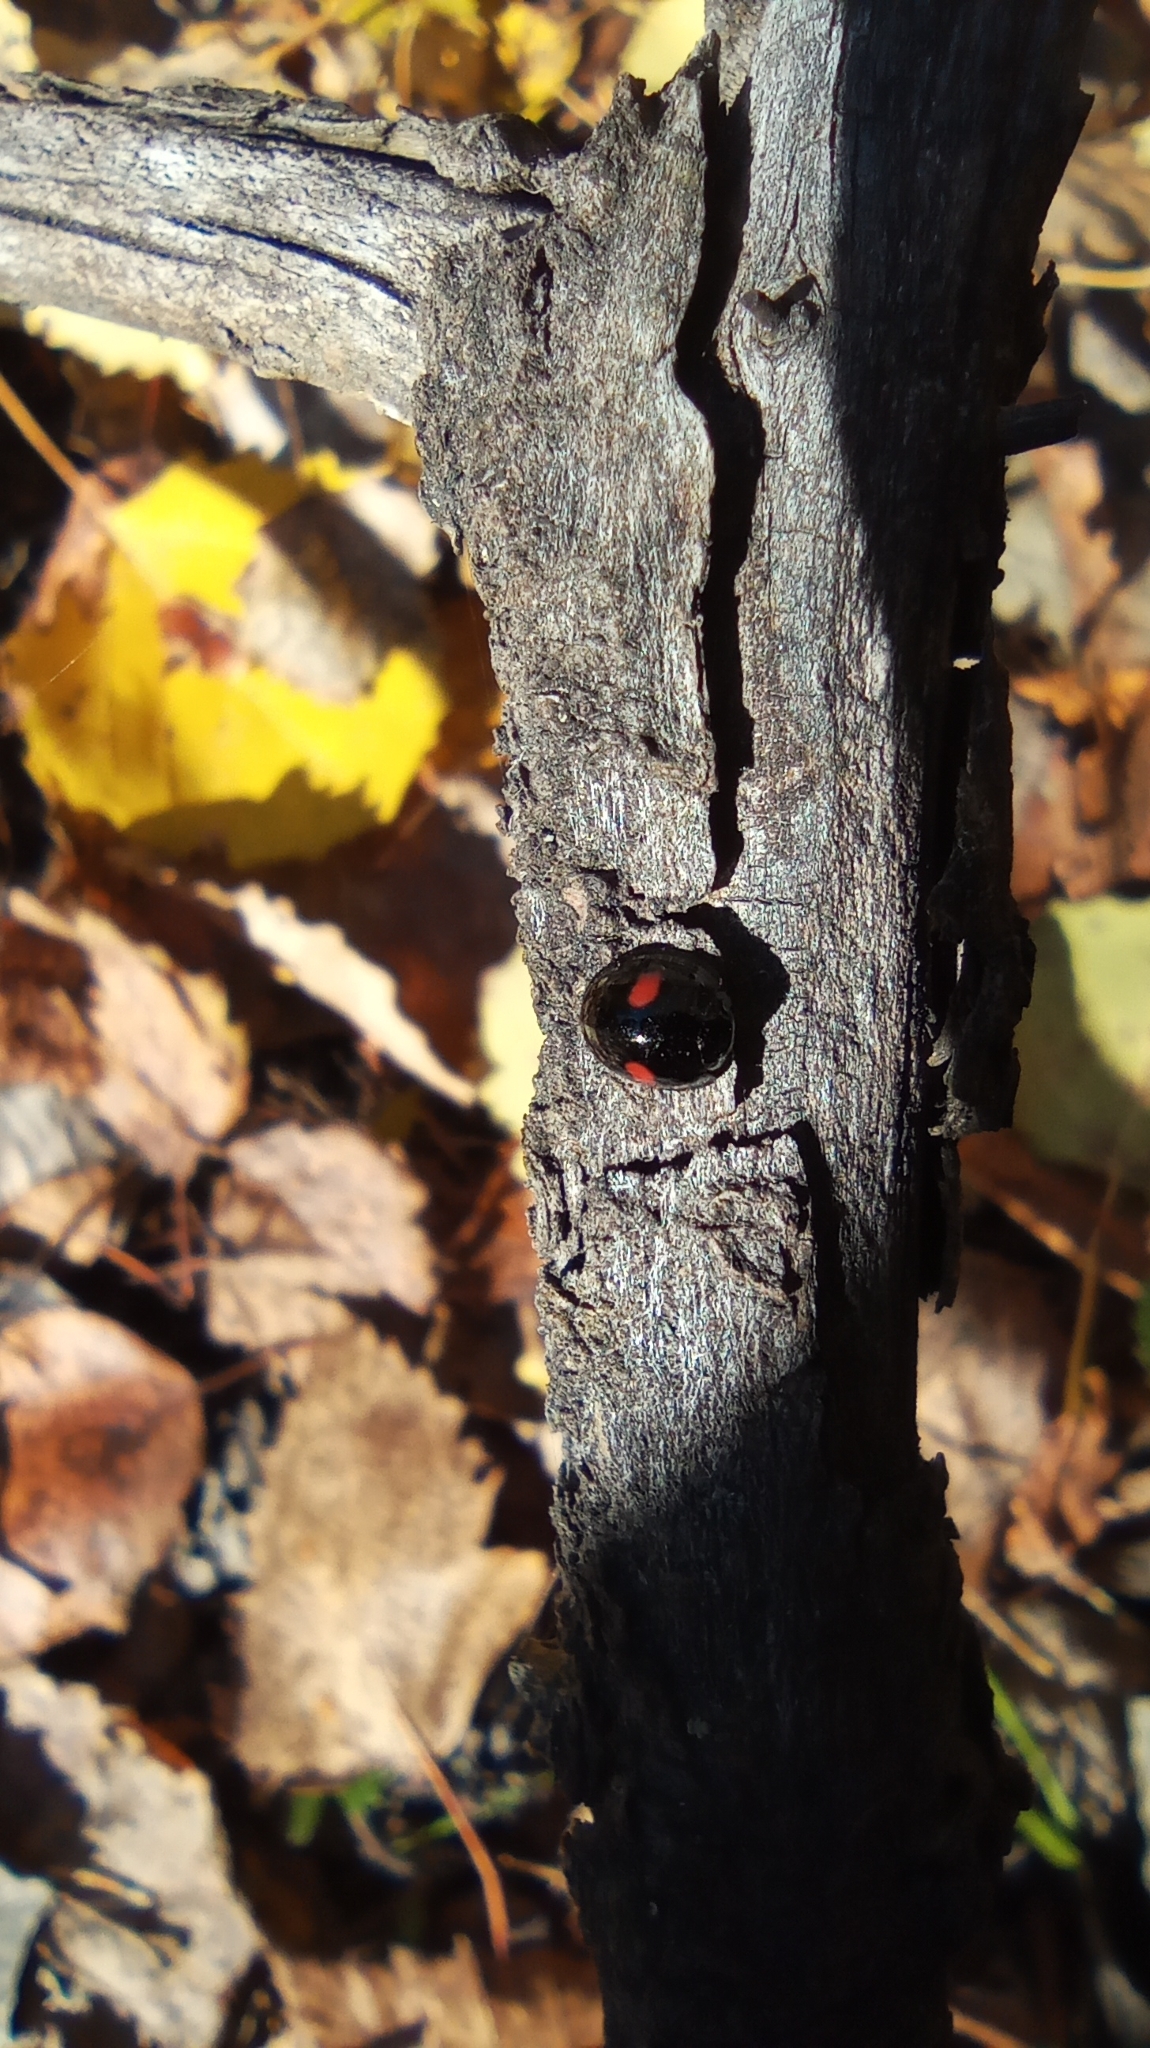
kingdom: Animalia
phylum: Arthropoda
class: Insecta
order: Coleoptera
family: Coccinellidae
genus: Chilocorus
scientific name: Chilocorus renipustulatus
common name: Kidney-spot ladybird
